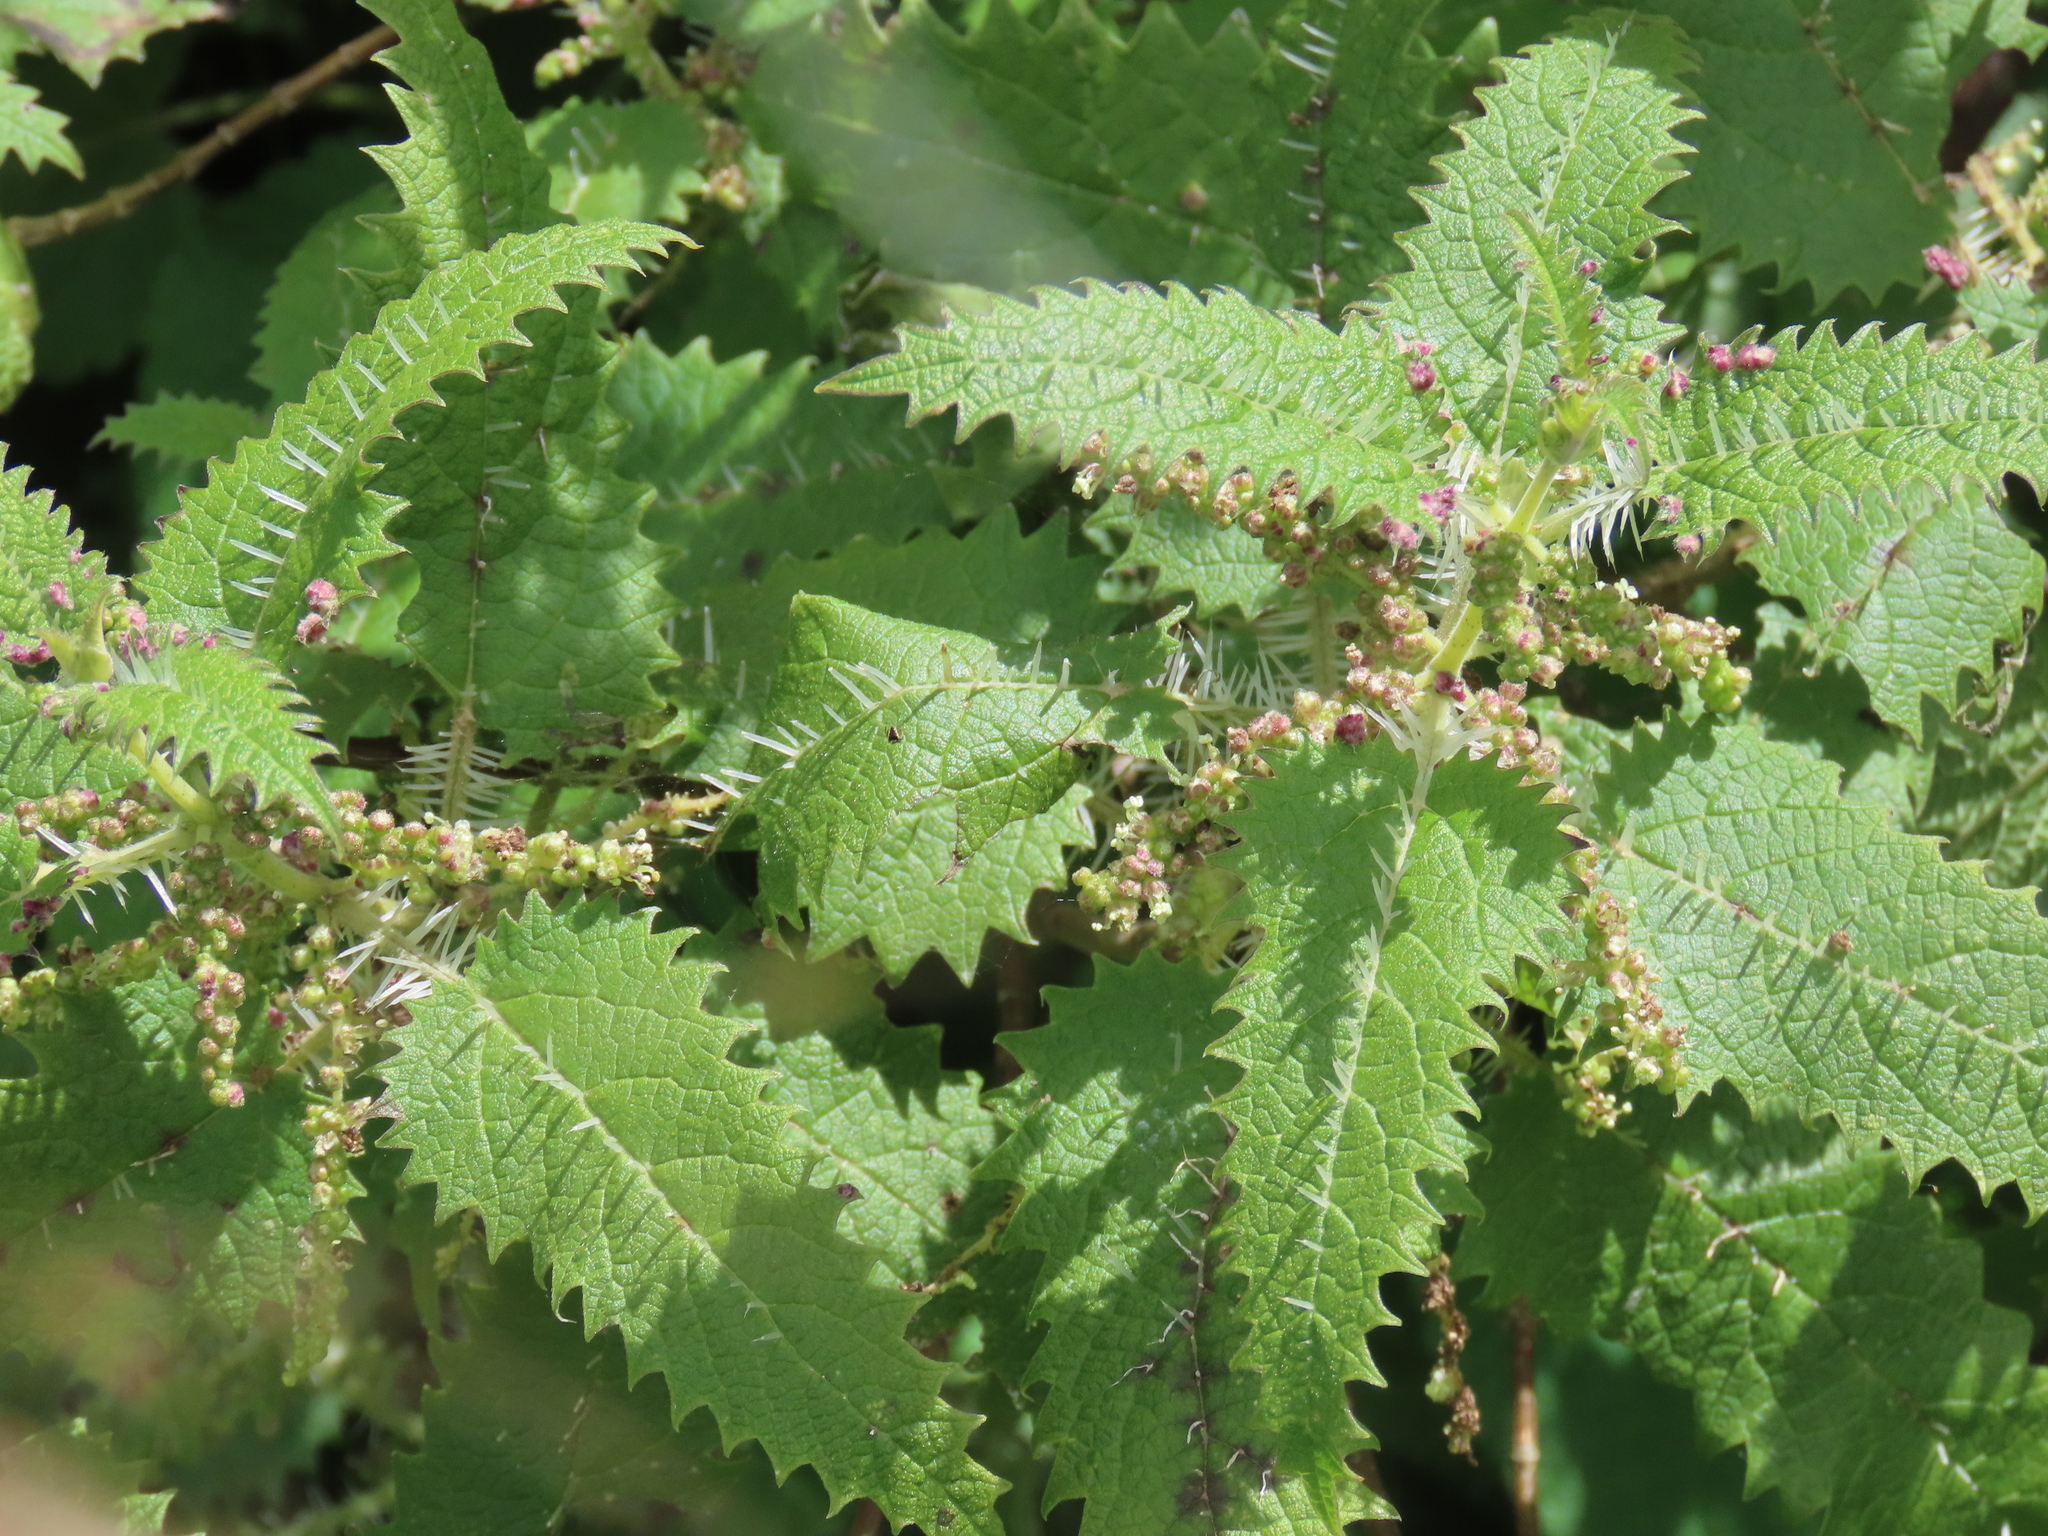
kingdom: Plantae
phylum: Tracheophyta
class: Magnoliopsida
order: Rosales
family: Urticaceae
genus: Urtica
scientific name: Urtica ferox
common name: Tree nettle
